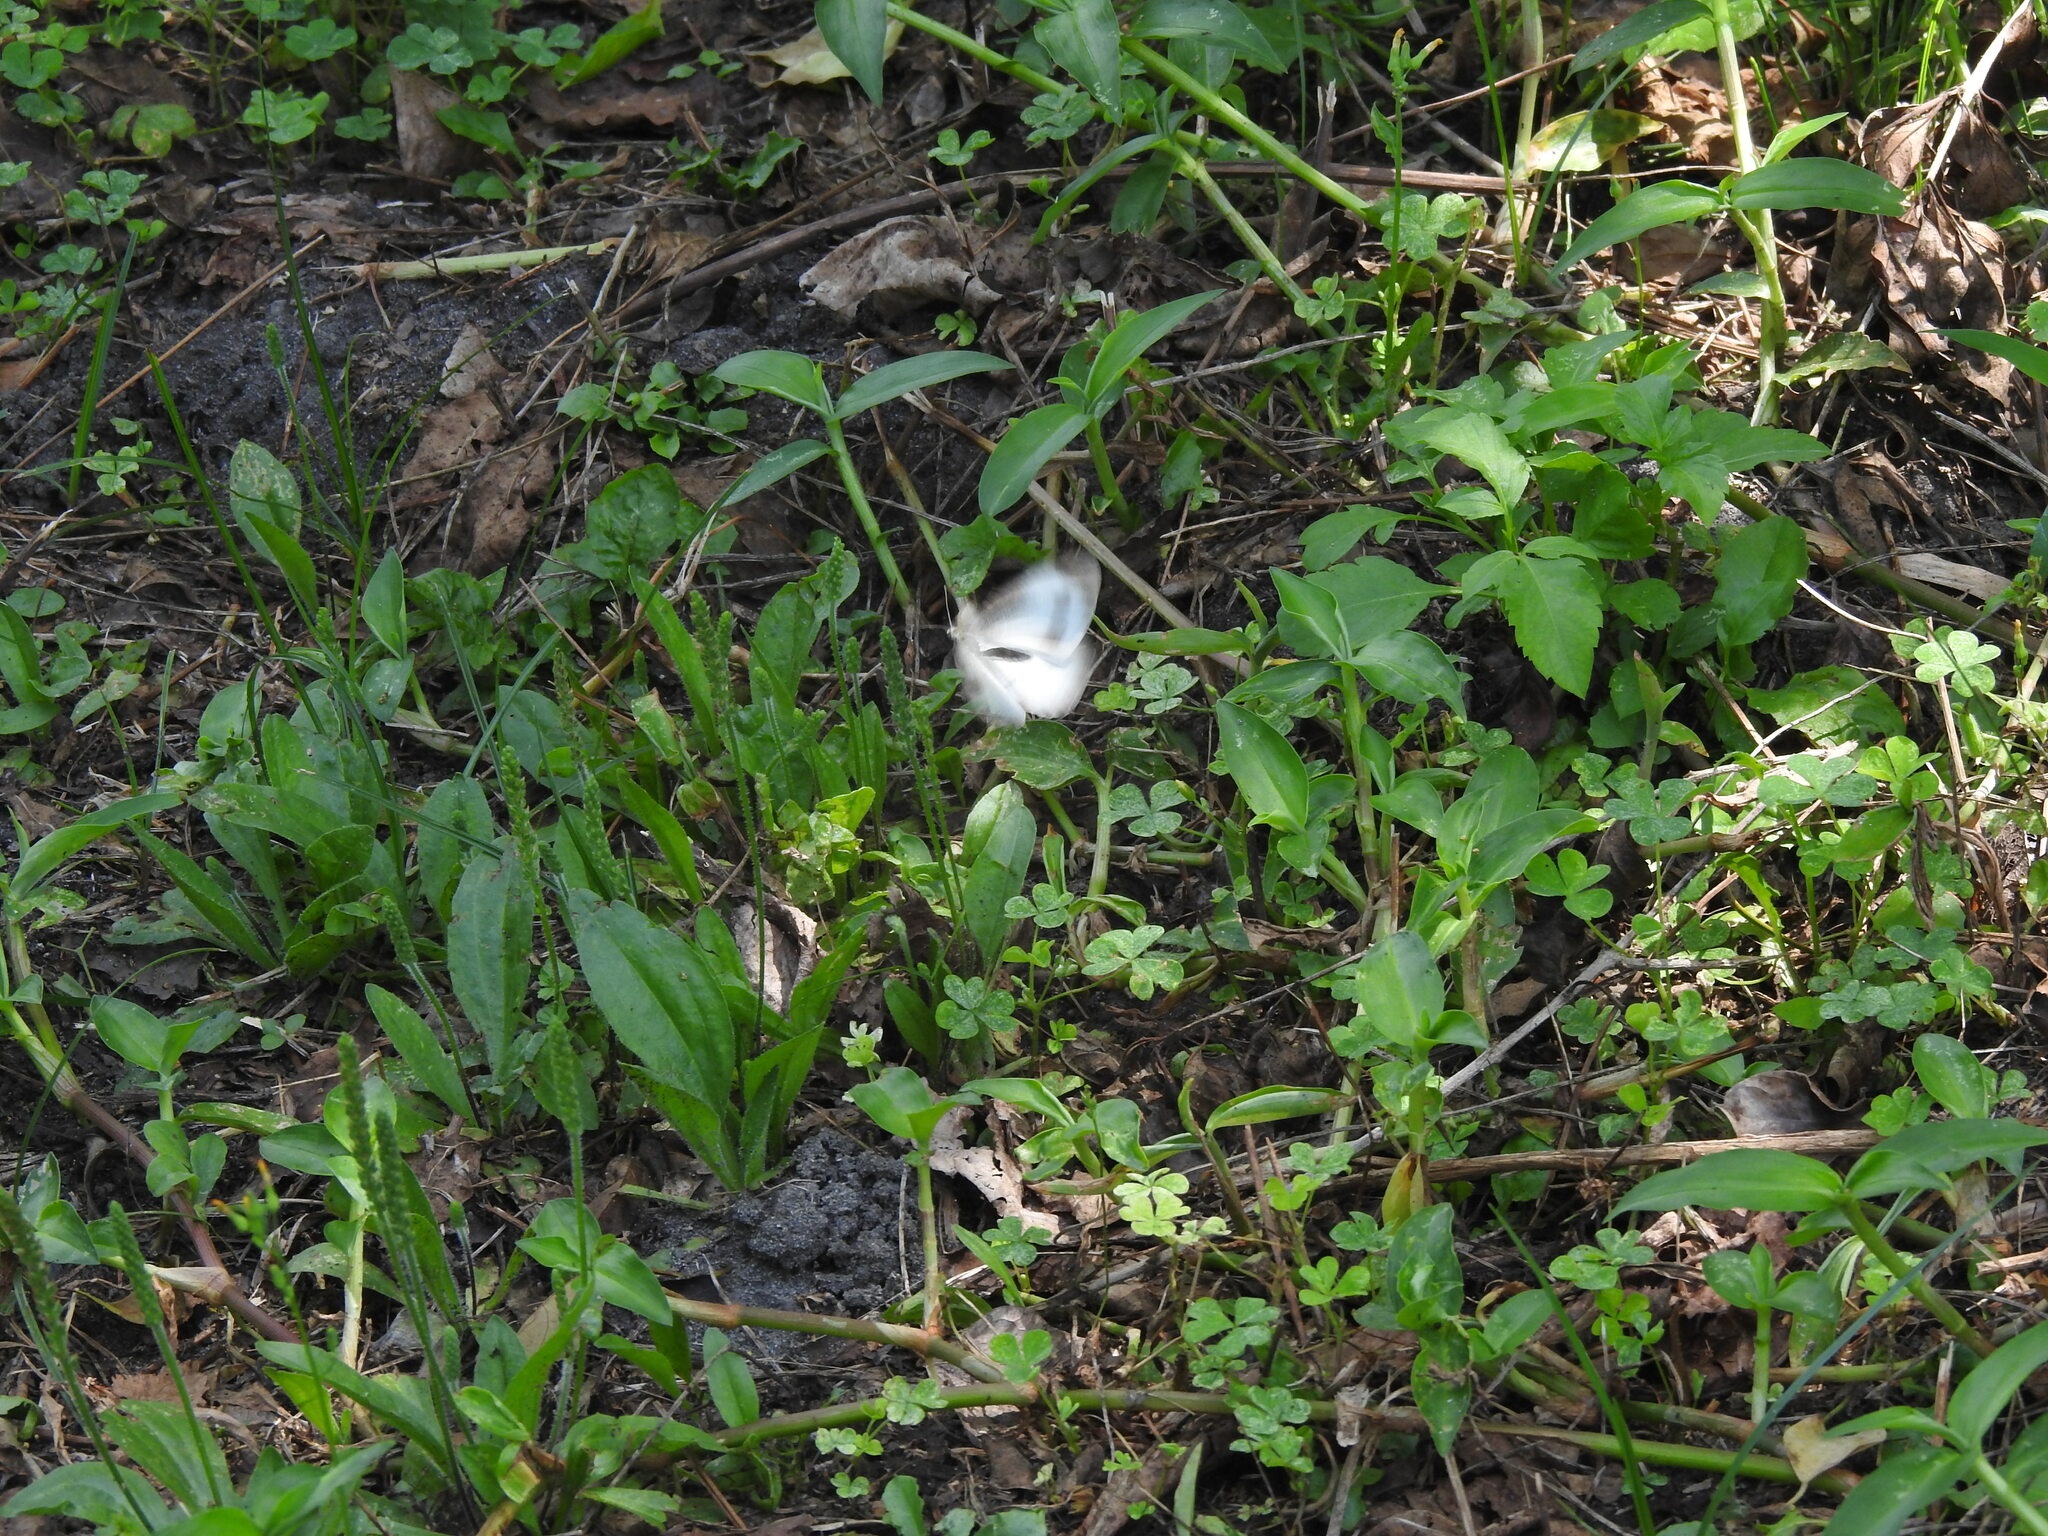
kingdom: Animalia
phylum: Arthropoda
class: Insecta
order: Lepidoptera
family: Pieridae
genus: Pieris
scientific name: Pieris canidia
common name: Indian cabbage white
